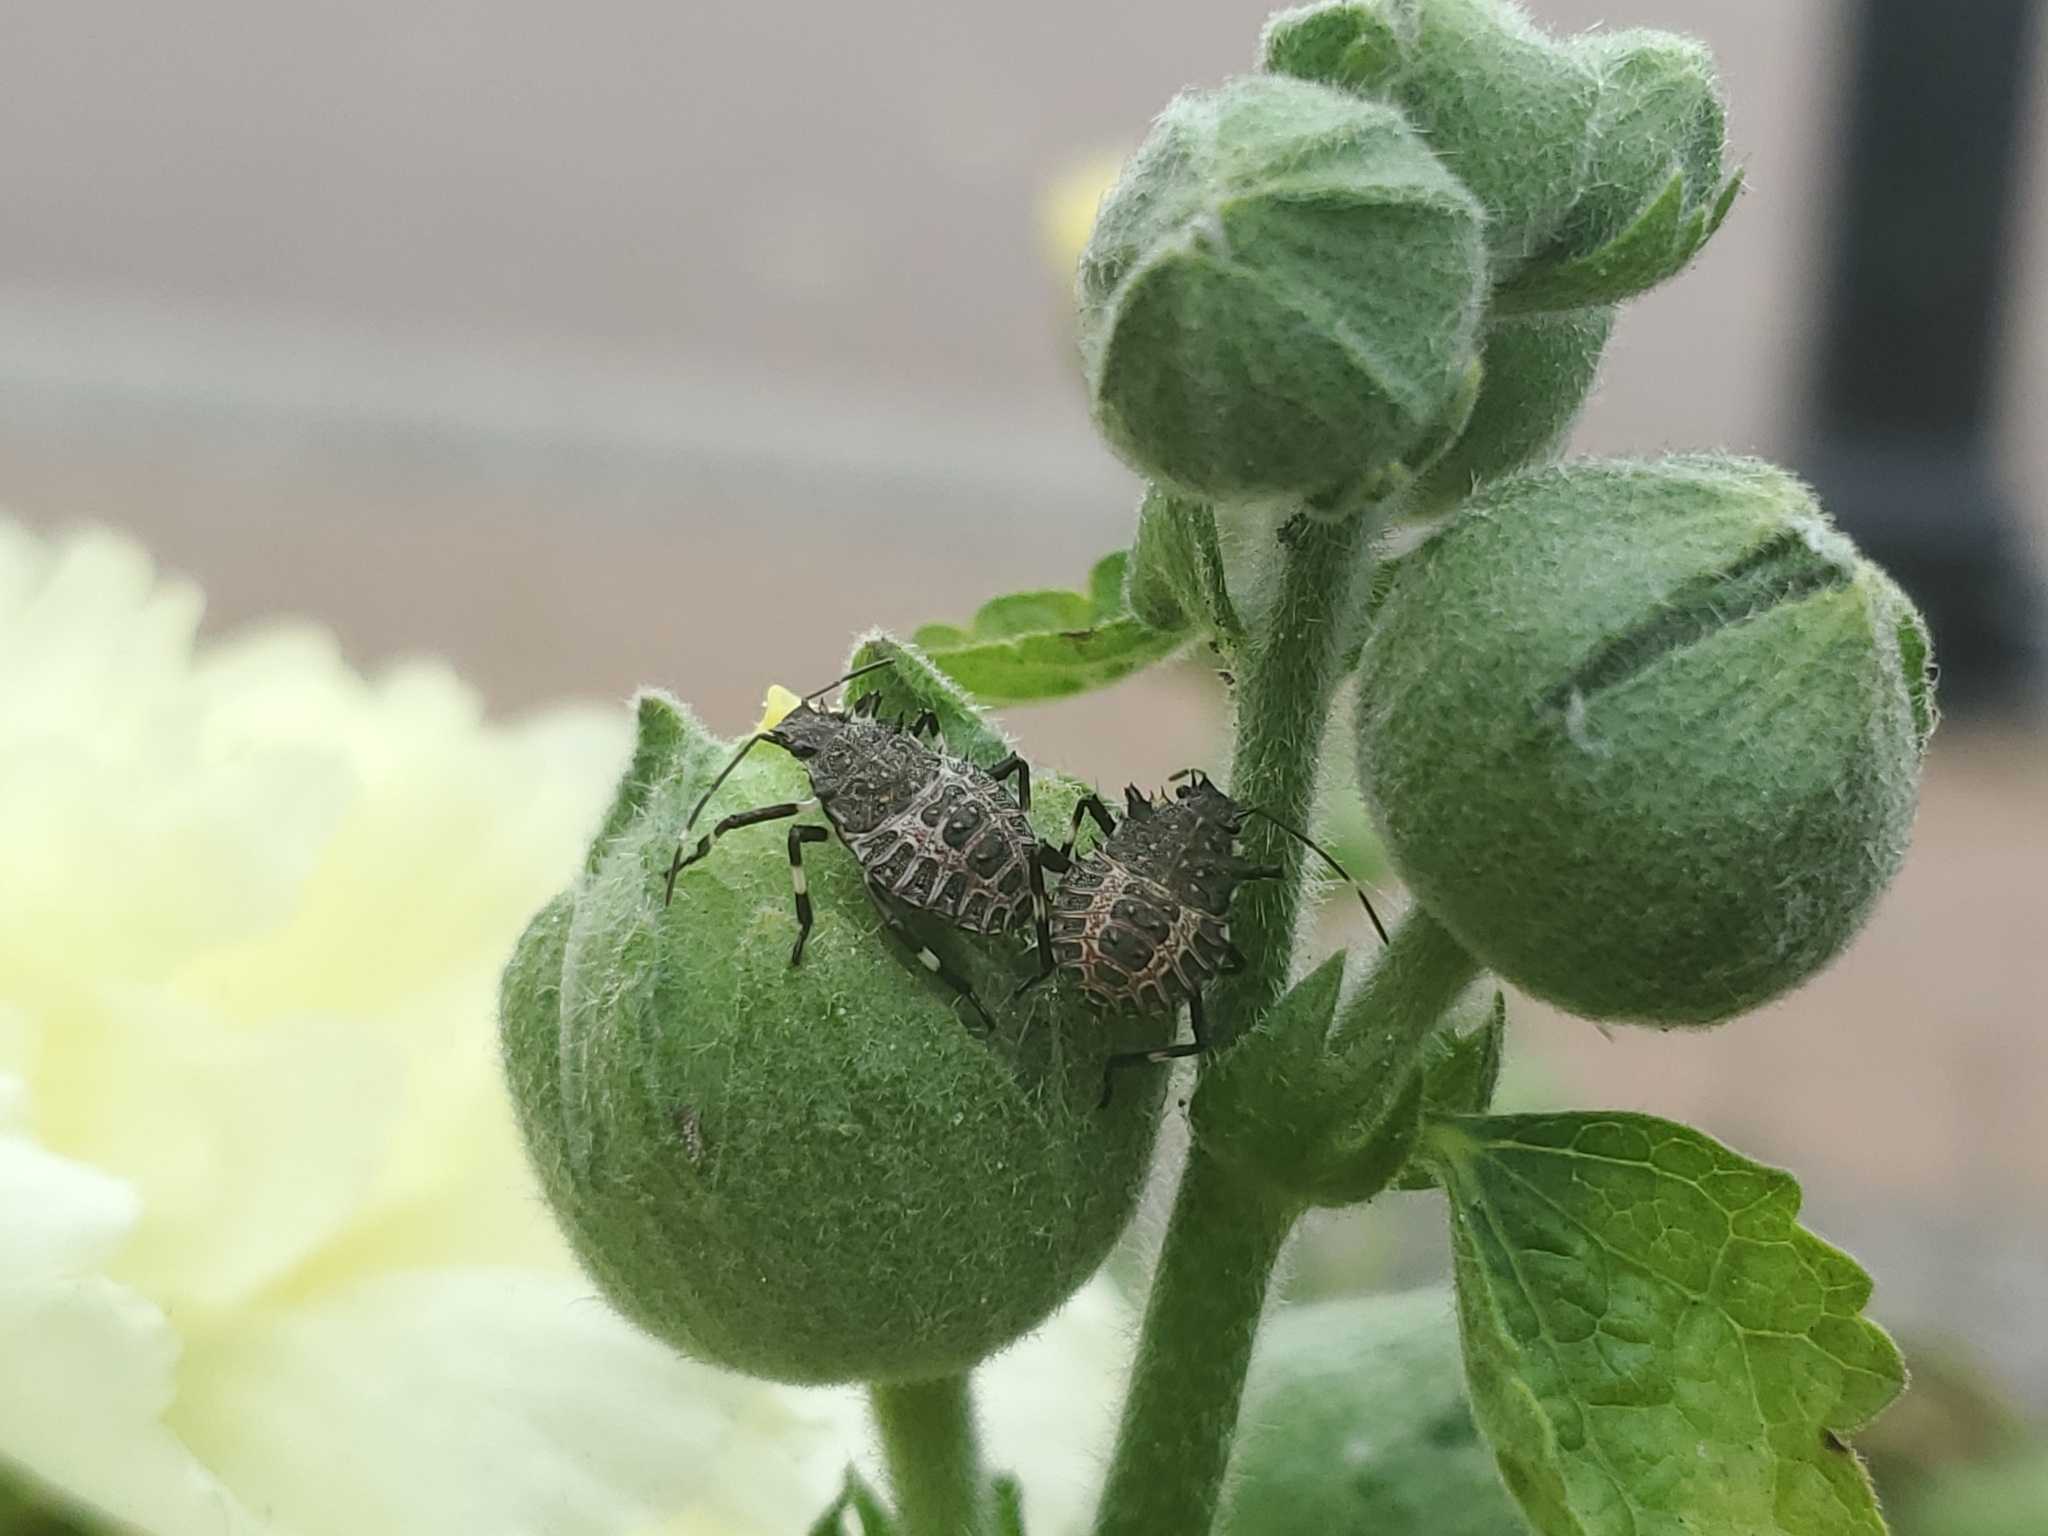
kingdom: Animalia
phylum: Arthropoda
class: Insecta
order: Hemiptera
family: Pentatomidae
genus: Halyomorpha
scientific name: Halyomorpha halys
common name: Brown marmorated stink bug
